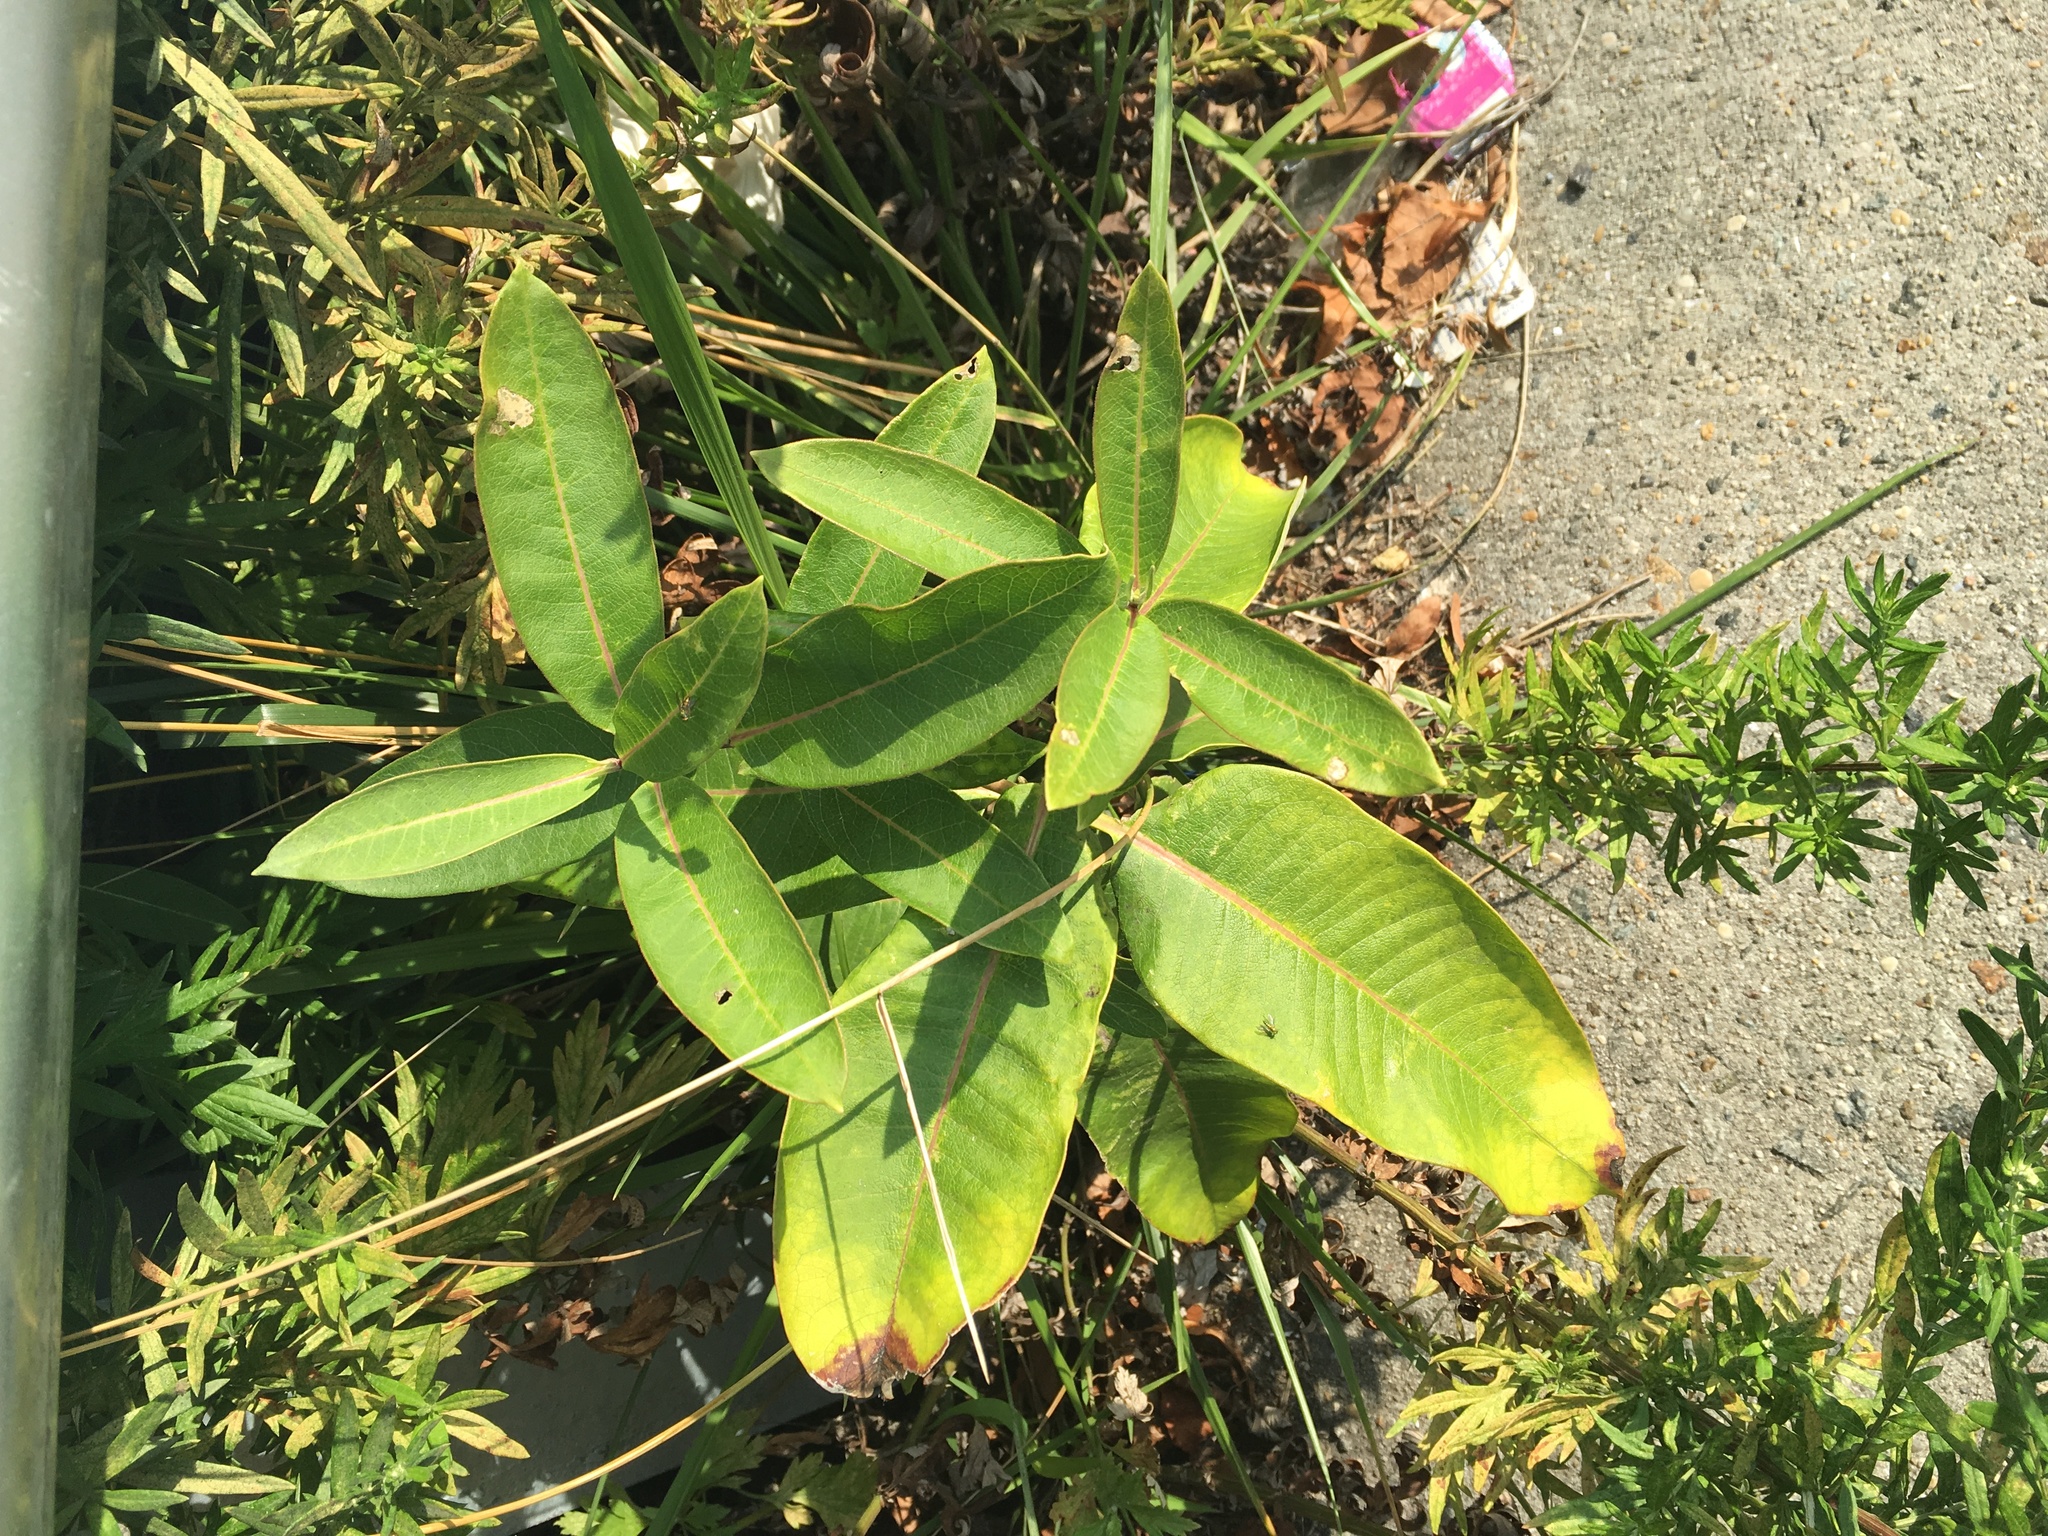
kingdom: Plantae
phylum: Tracheophyta
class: Magnoliopsida
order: Gentianales
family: Apocynaceae
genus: Asclepias
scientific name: Asclepias syriaca
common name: Common milkweed
